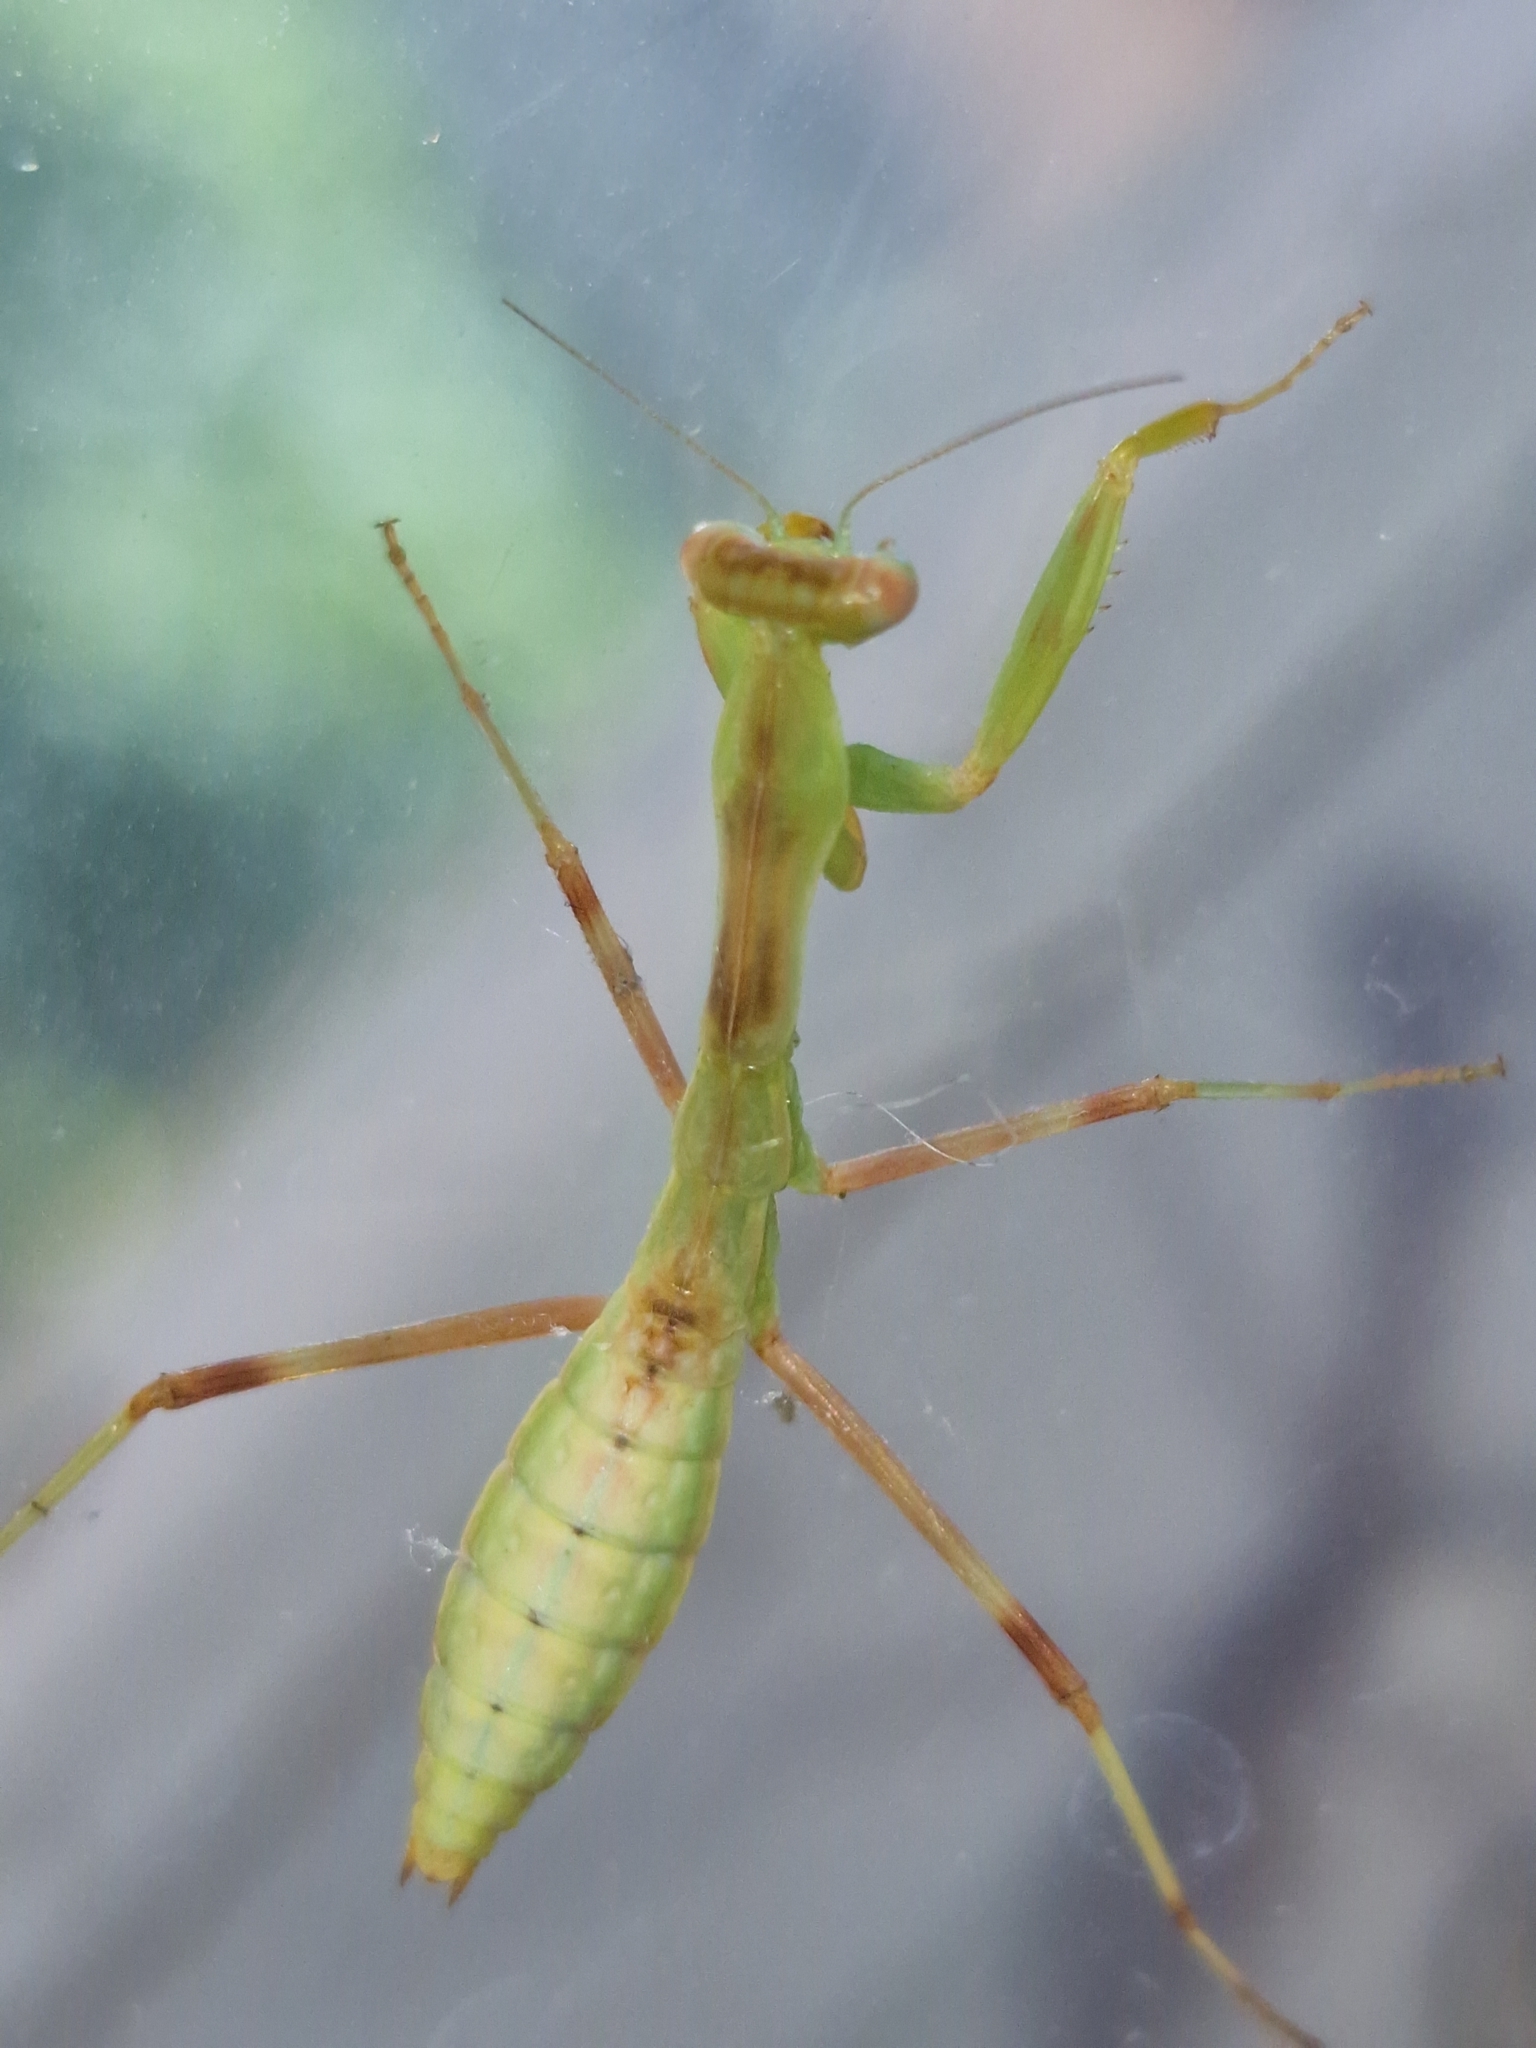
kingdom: Animalia
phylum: Arthropoda
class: Insecta
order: Mantodea
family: Mantidae
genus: Hierodula
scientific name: Hierodula transcaucasica
